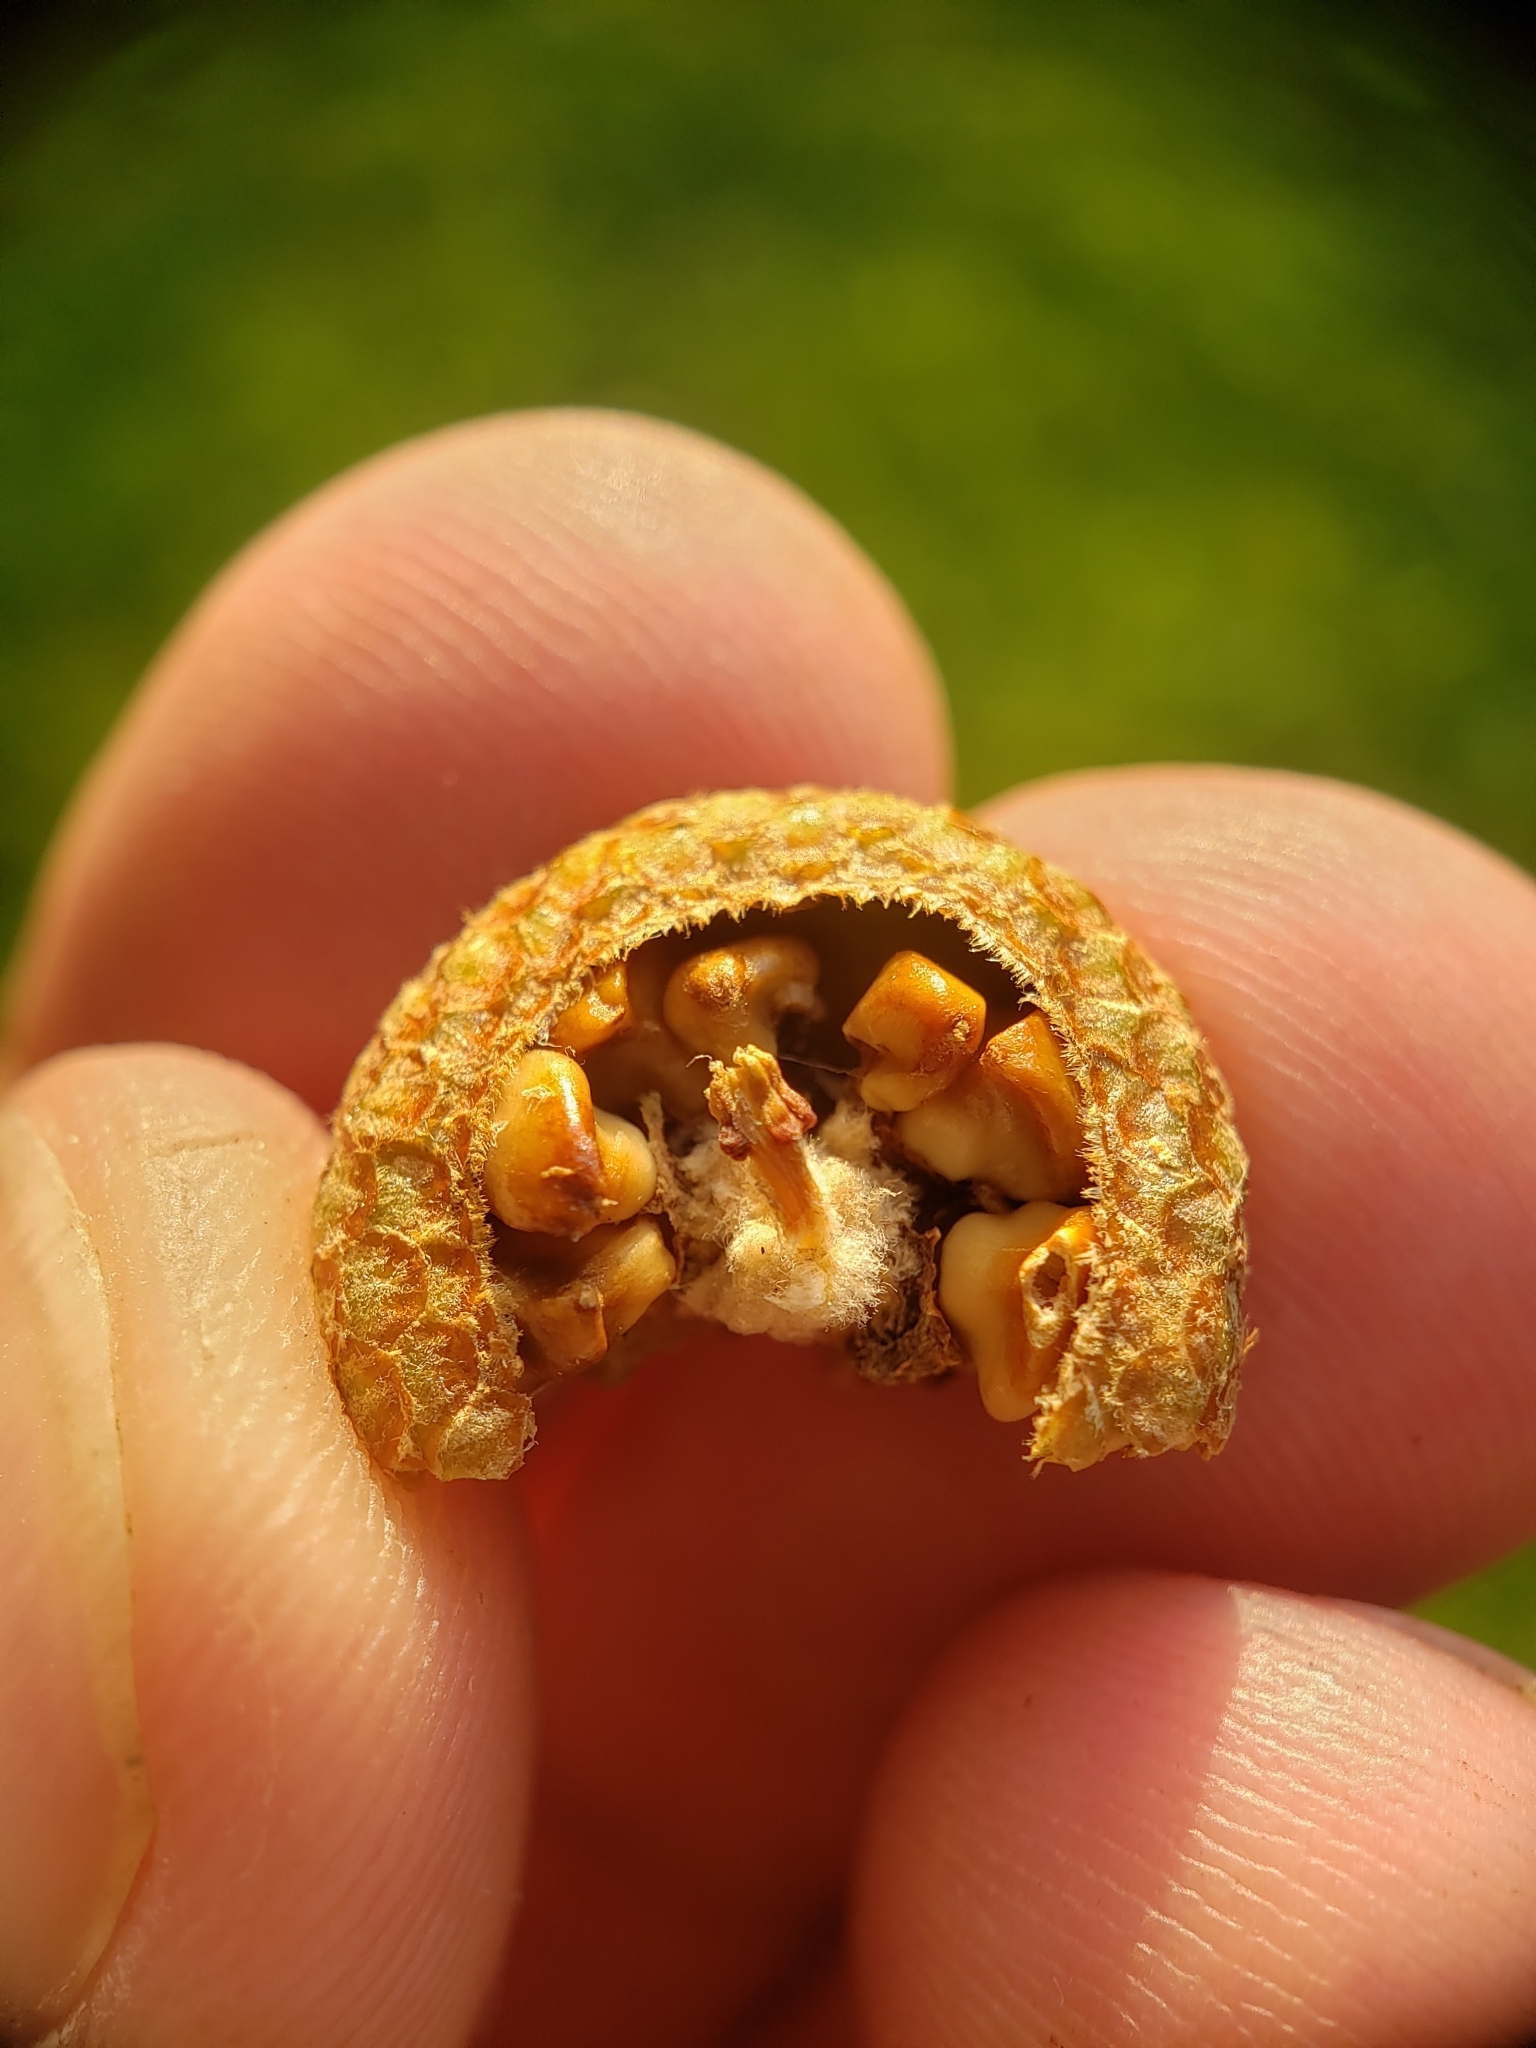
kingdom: Animalia
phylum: Arthropoda
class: Insecta
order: Hymenoptera
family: Cynipidae
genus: Callirhytis
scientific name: Callirhytis
